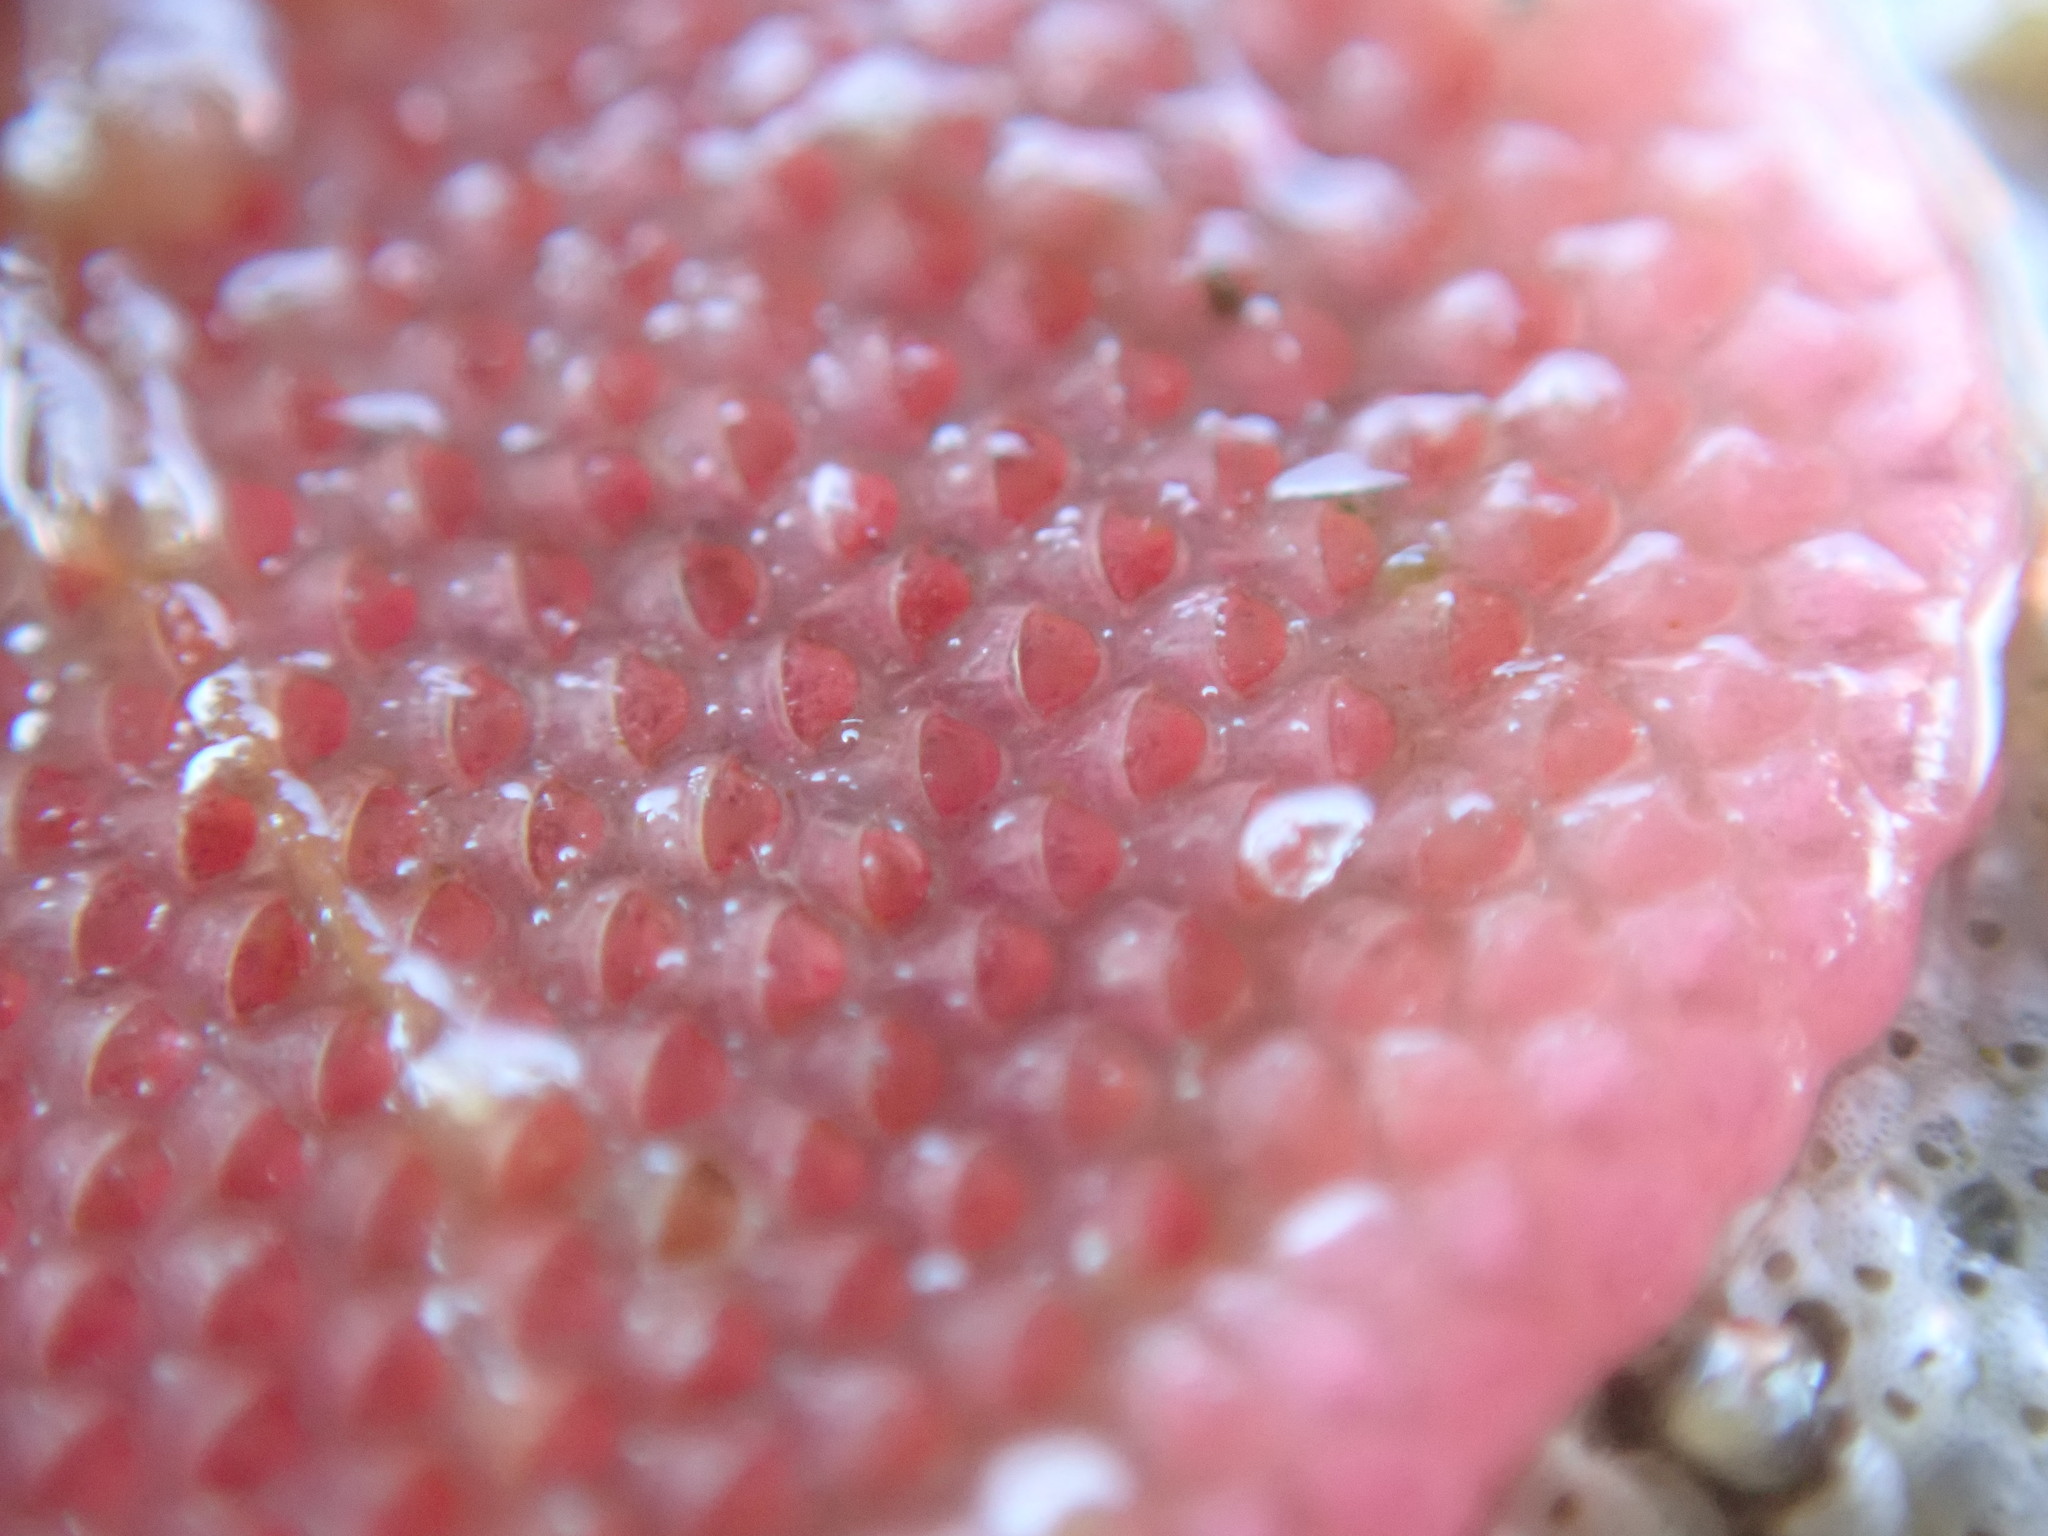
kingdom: Animalia
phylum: Bryozoa
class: Gymnolaemata
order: Cheilostomatida
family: Eurystomellidae
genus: Integripelta
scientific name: Integripelta bilabiata
